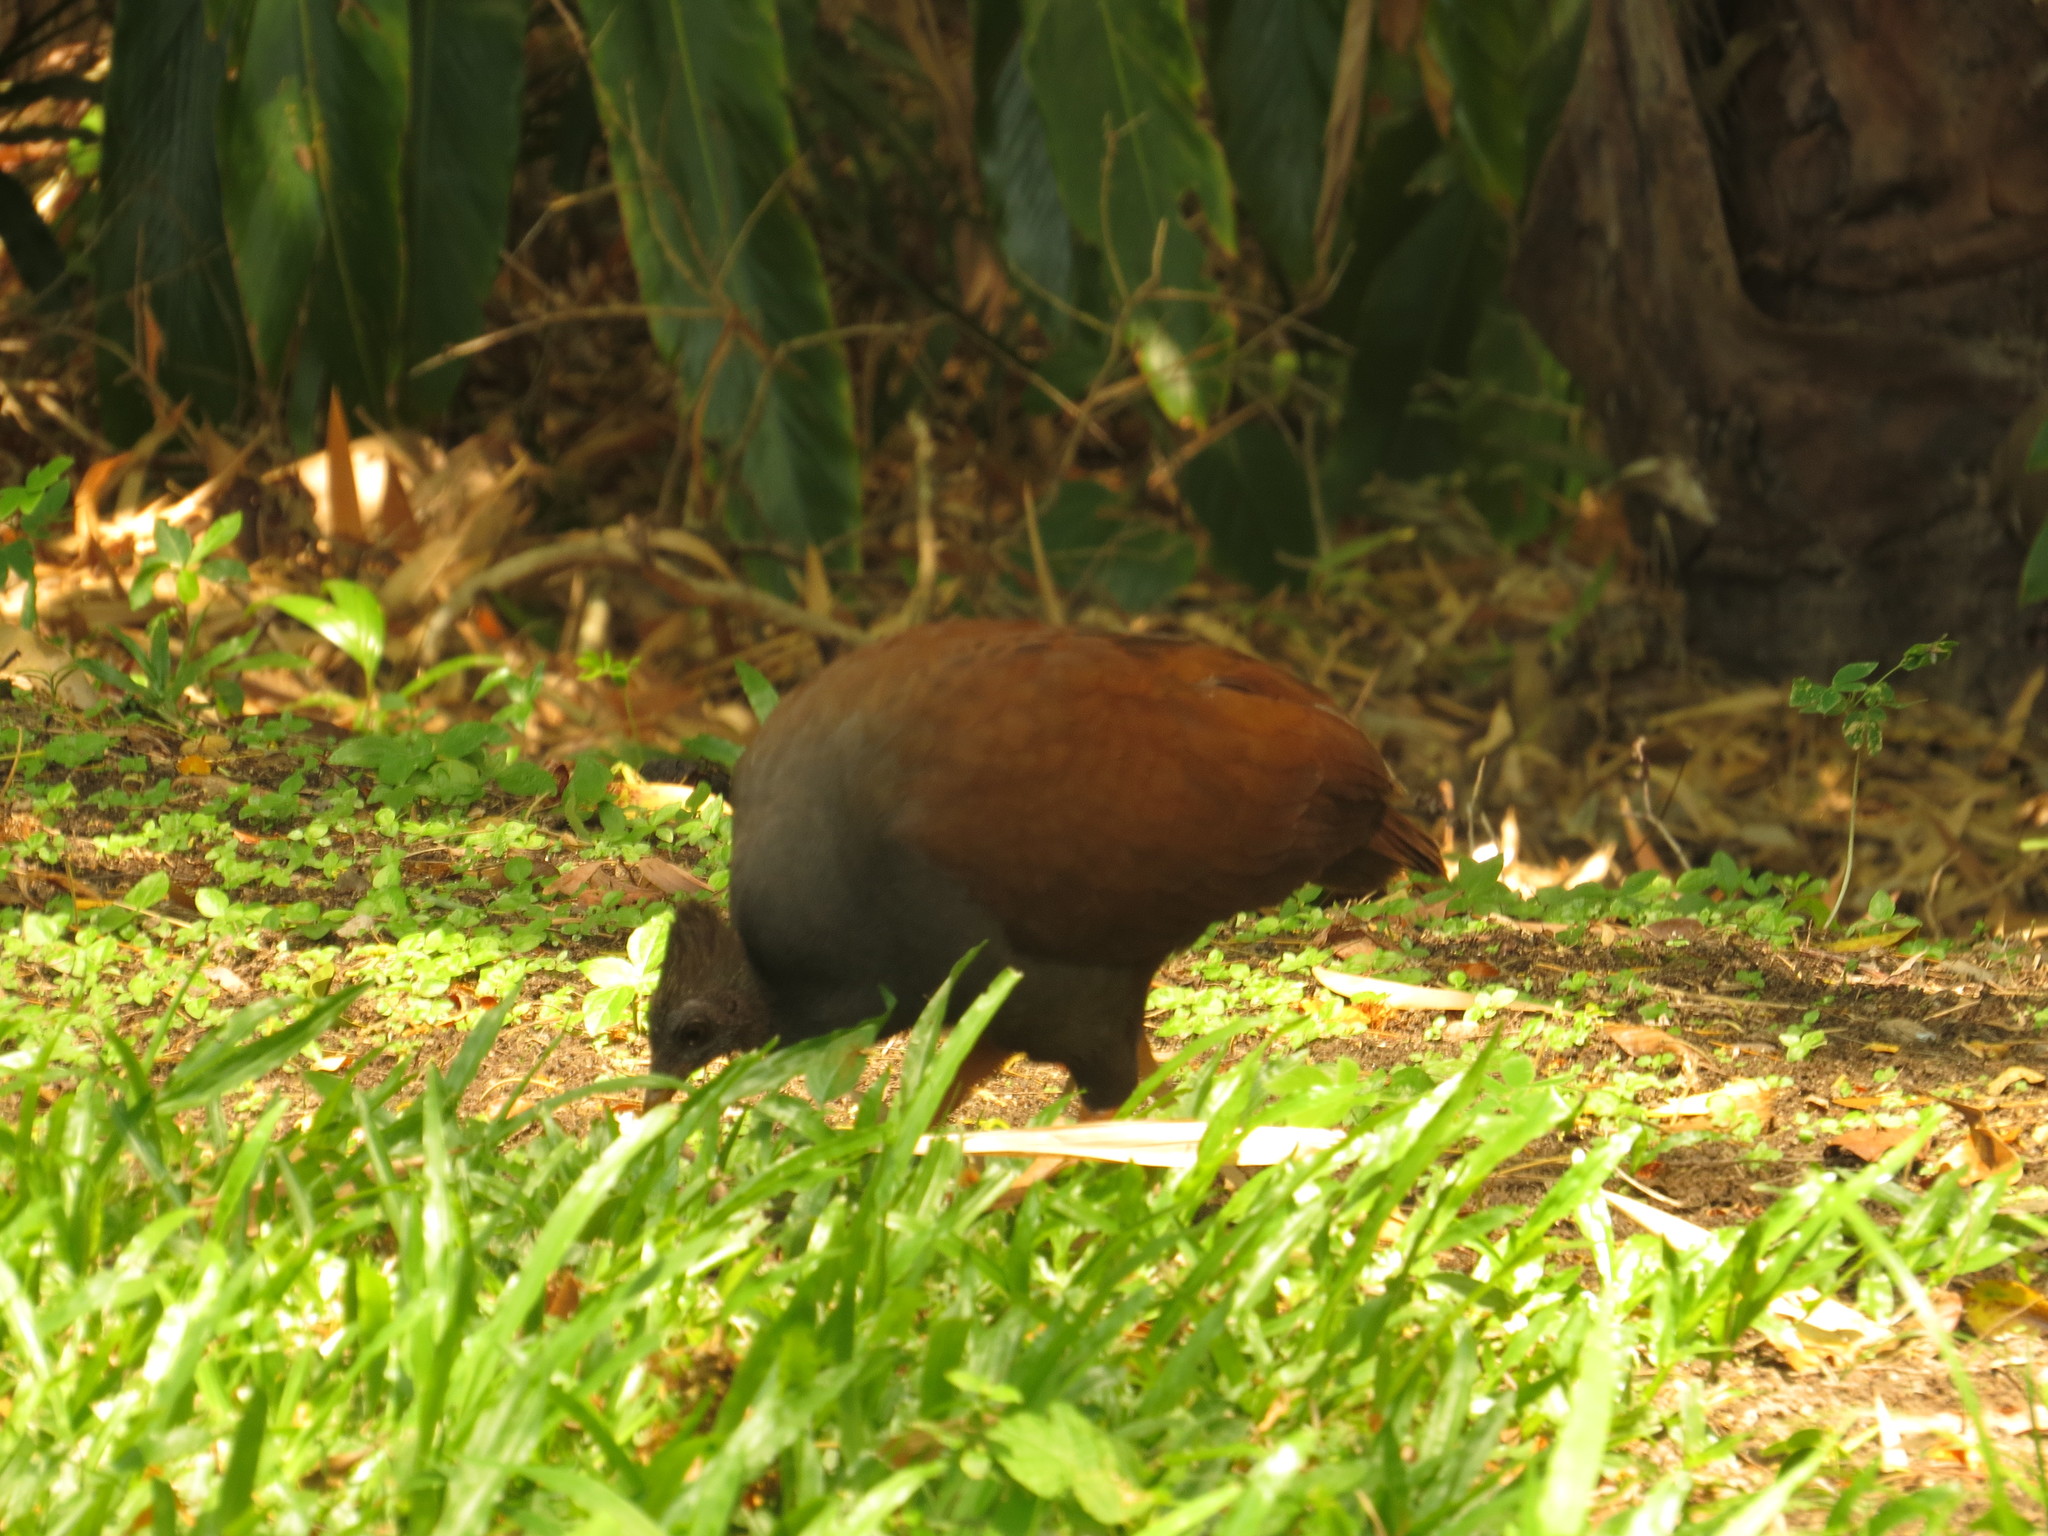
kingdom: Animalia
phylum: Chordata
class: Aves
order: Galliformes
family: Megapodiidae
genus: Megapodius
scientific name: Megapodius reinwardt
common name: Orange-footed scrubfowl
